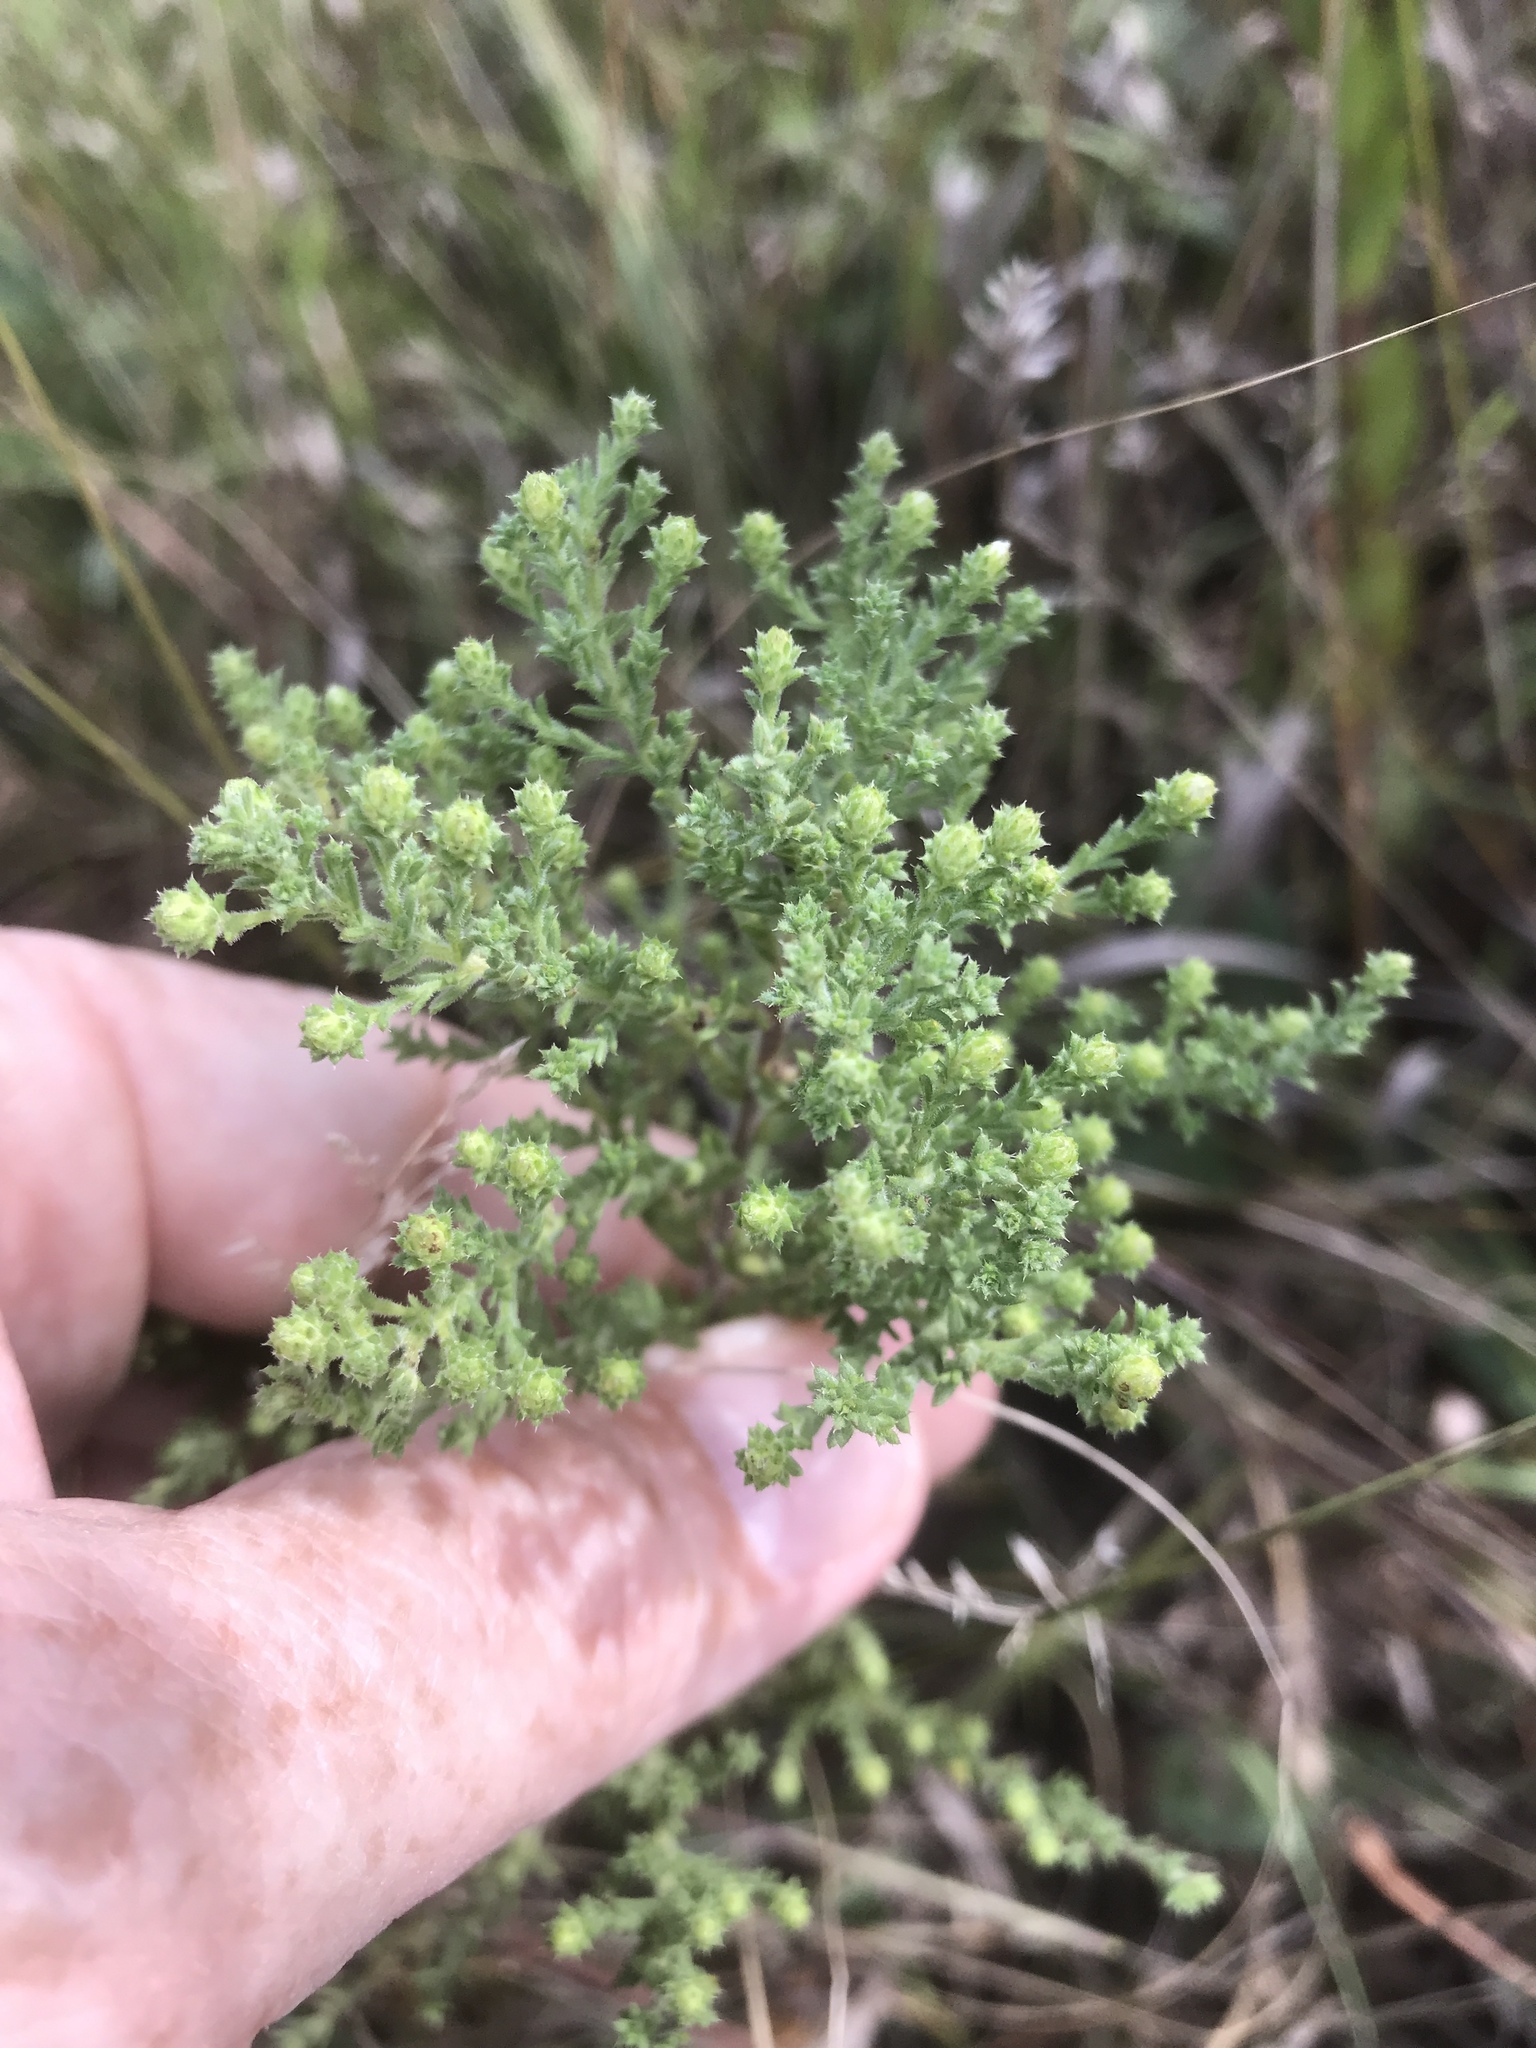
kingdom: Plantae
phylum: Tracheophyta
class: Magnoliopsida
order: Asterales
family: Asteraceae
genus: Symphyotrichum
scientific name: Symphyotrichum ericoides
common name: Heath aster
